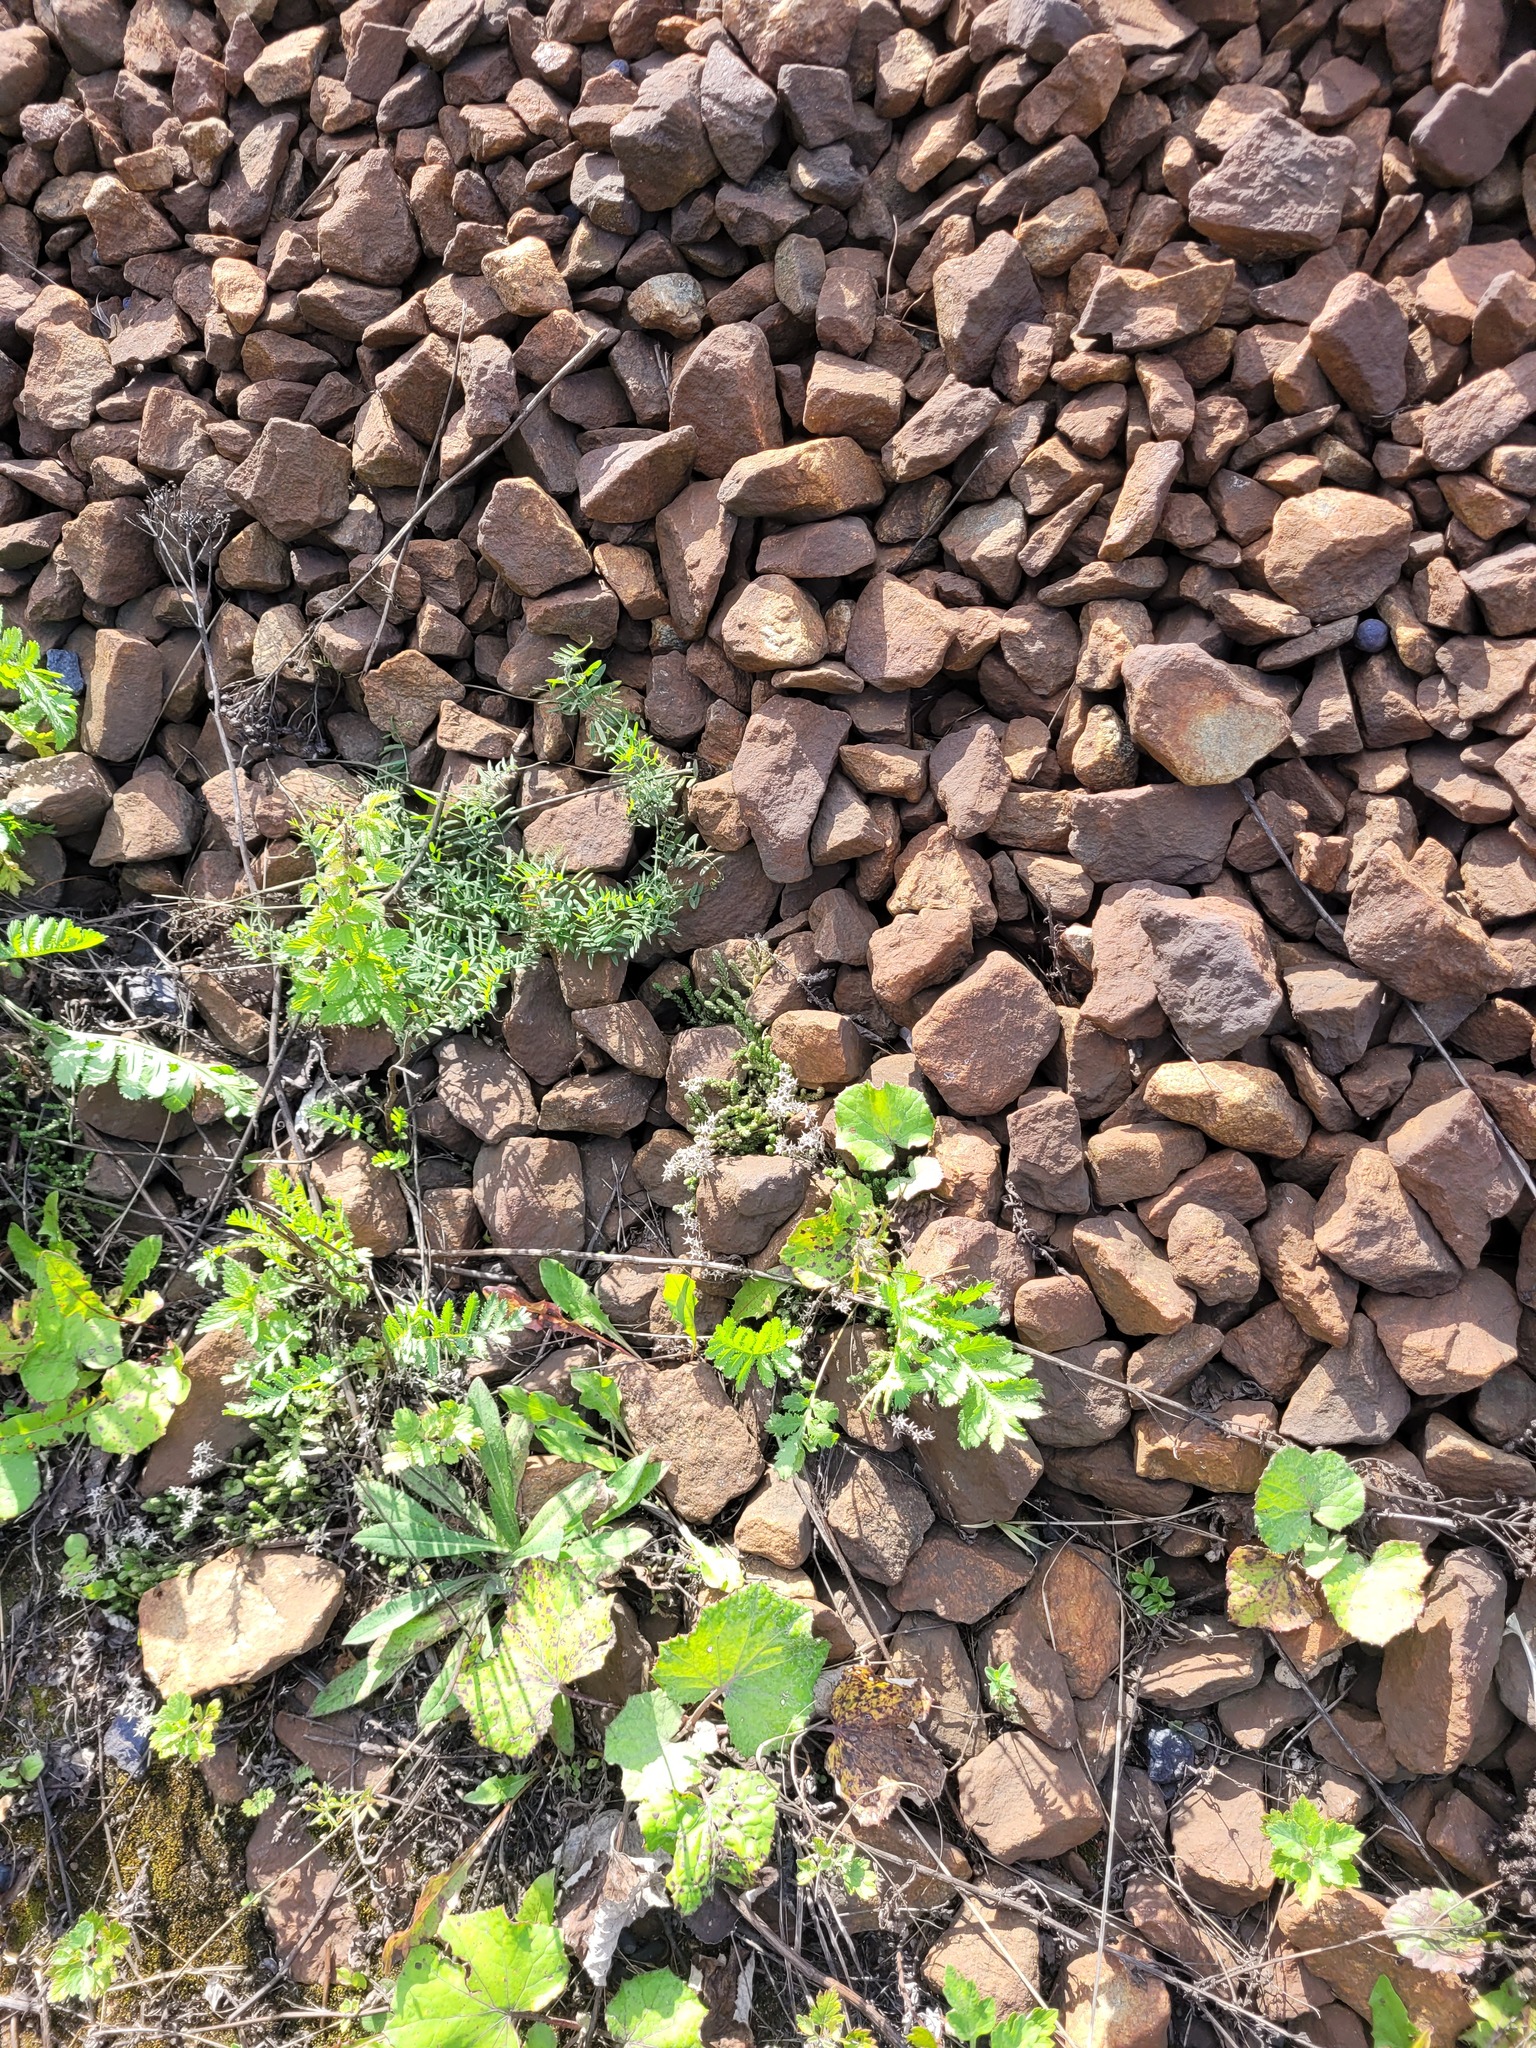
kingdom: Plantae
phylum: Tracheophyta
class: Magnoliopsida
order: Saxifragales
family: Crassulaceae
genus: Sedum
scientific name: Sedum acre
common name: Biting stonecrop
